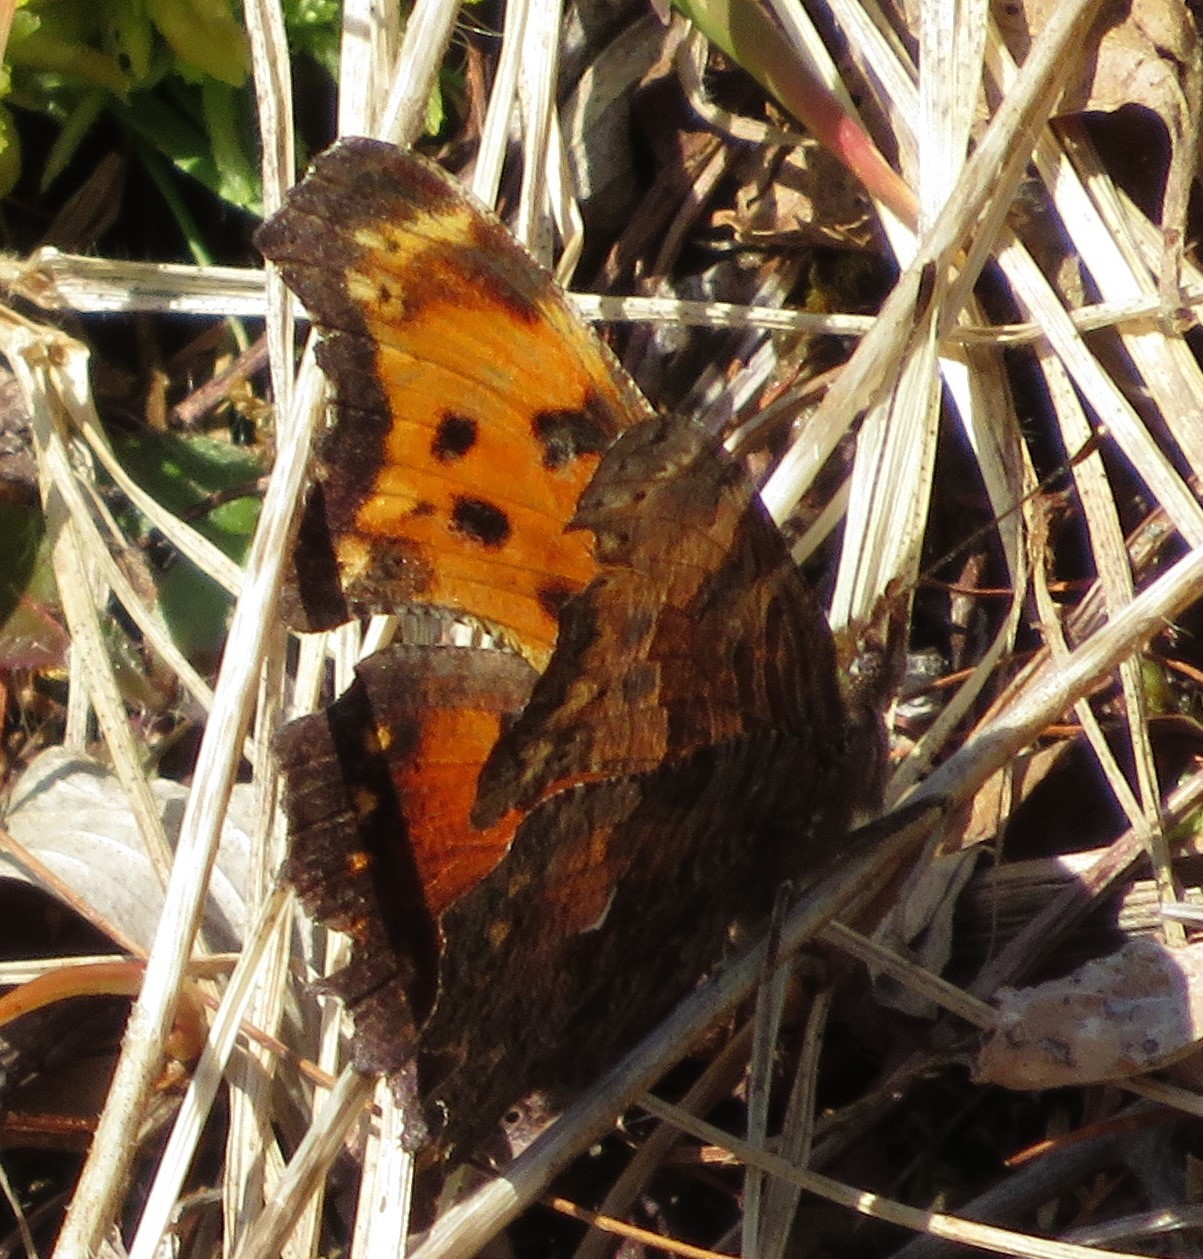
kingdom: Animalia
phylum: Arthropoda
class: Insecta
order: Lepidoptera
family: Nymphalidae
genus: Polygonia
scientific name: Polygonia progne
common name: Gray comma
